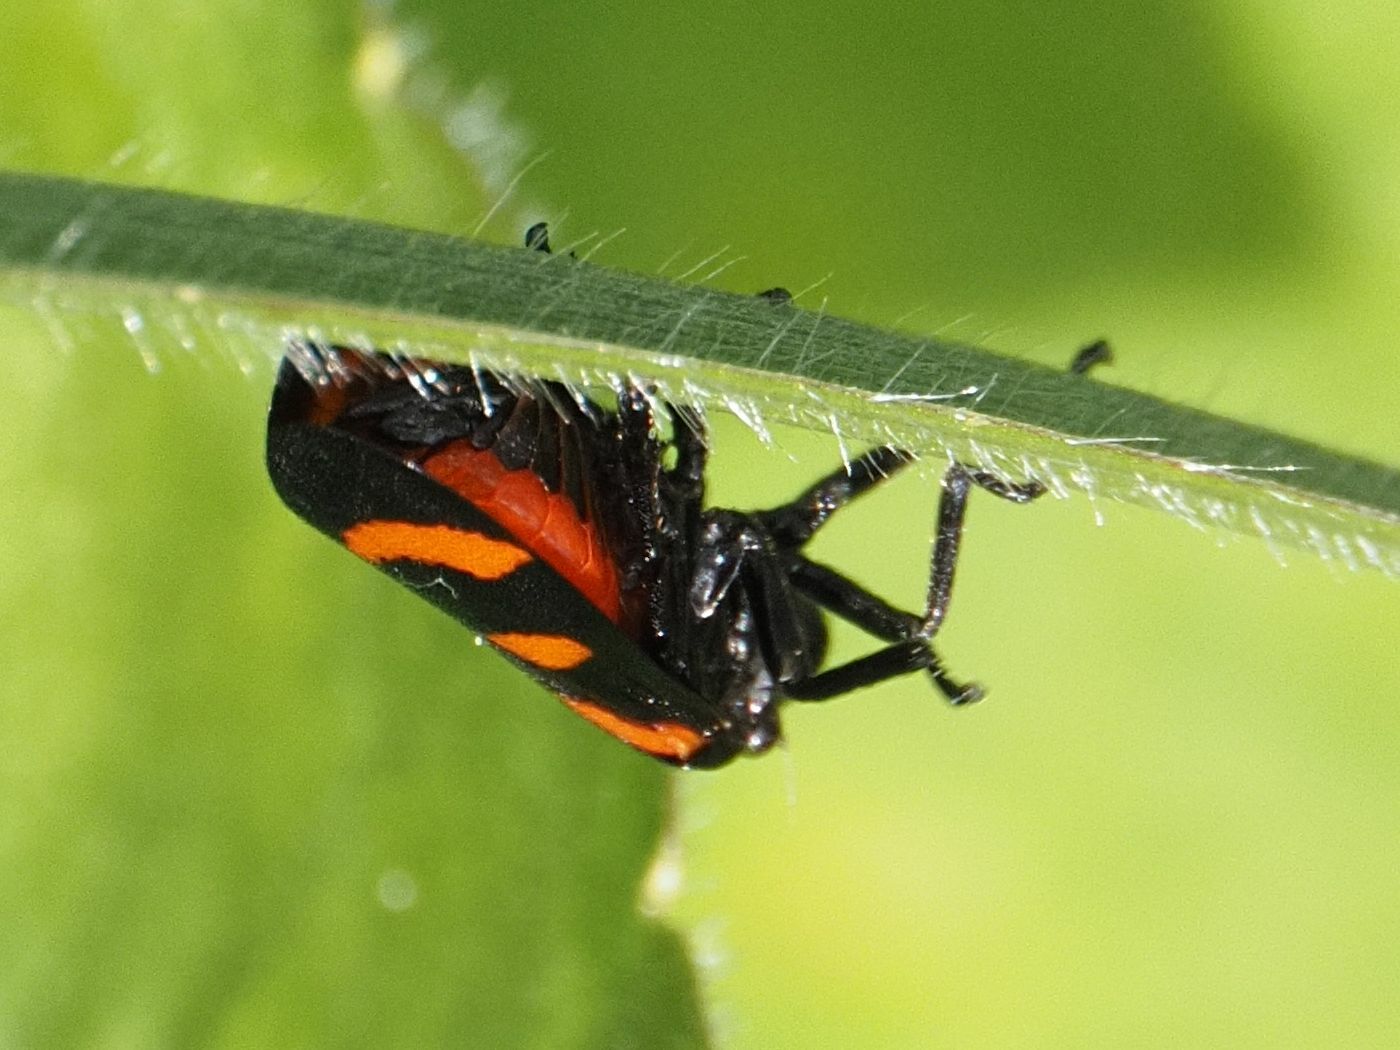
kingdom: Animalia
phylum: Arthropoda
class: Insecta
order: Hemiptera
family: Cercopidae
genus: Cercopis
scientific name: Cercopis arcuata
